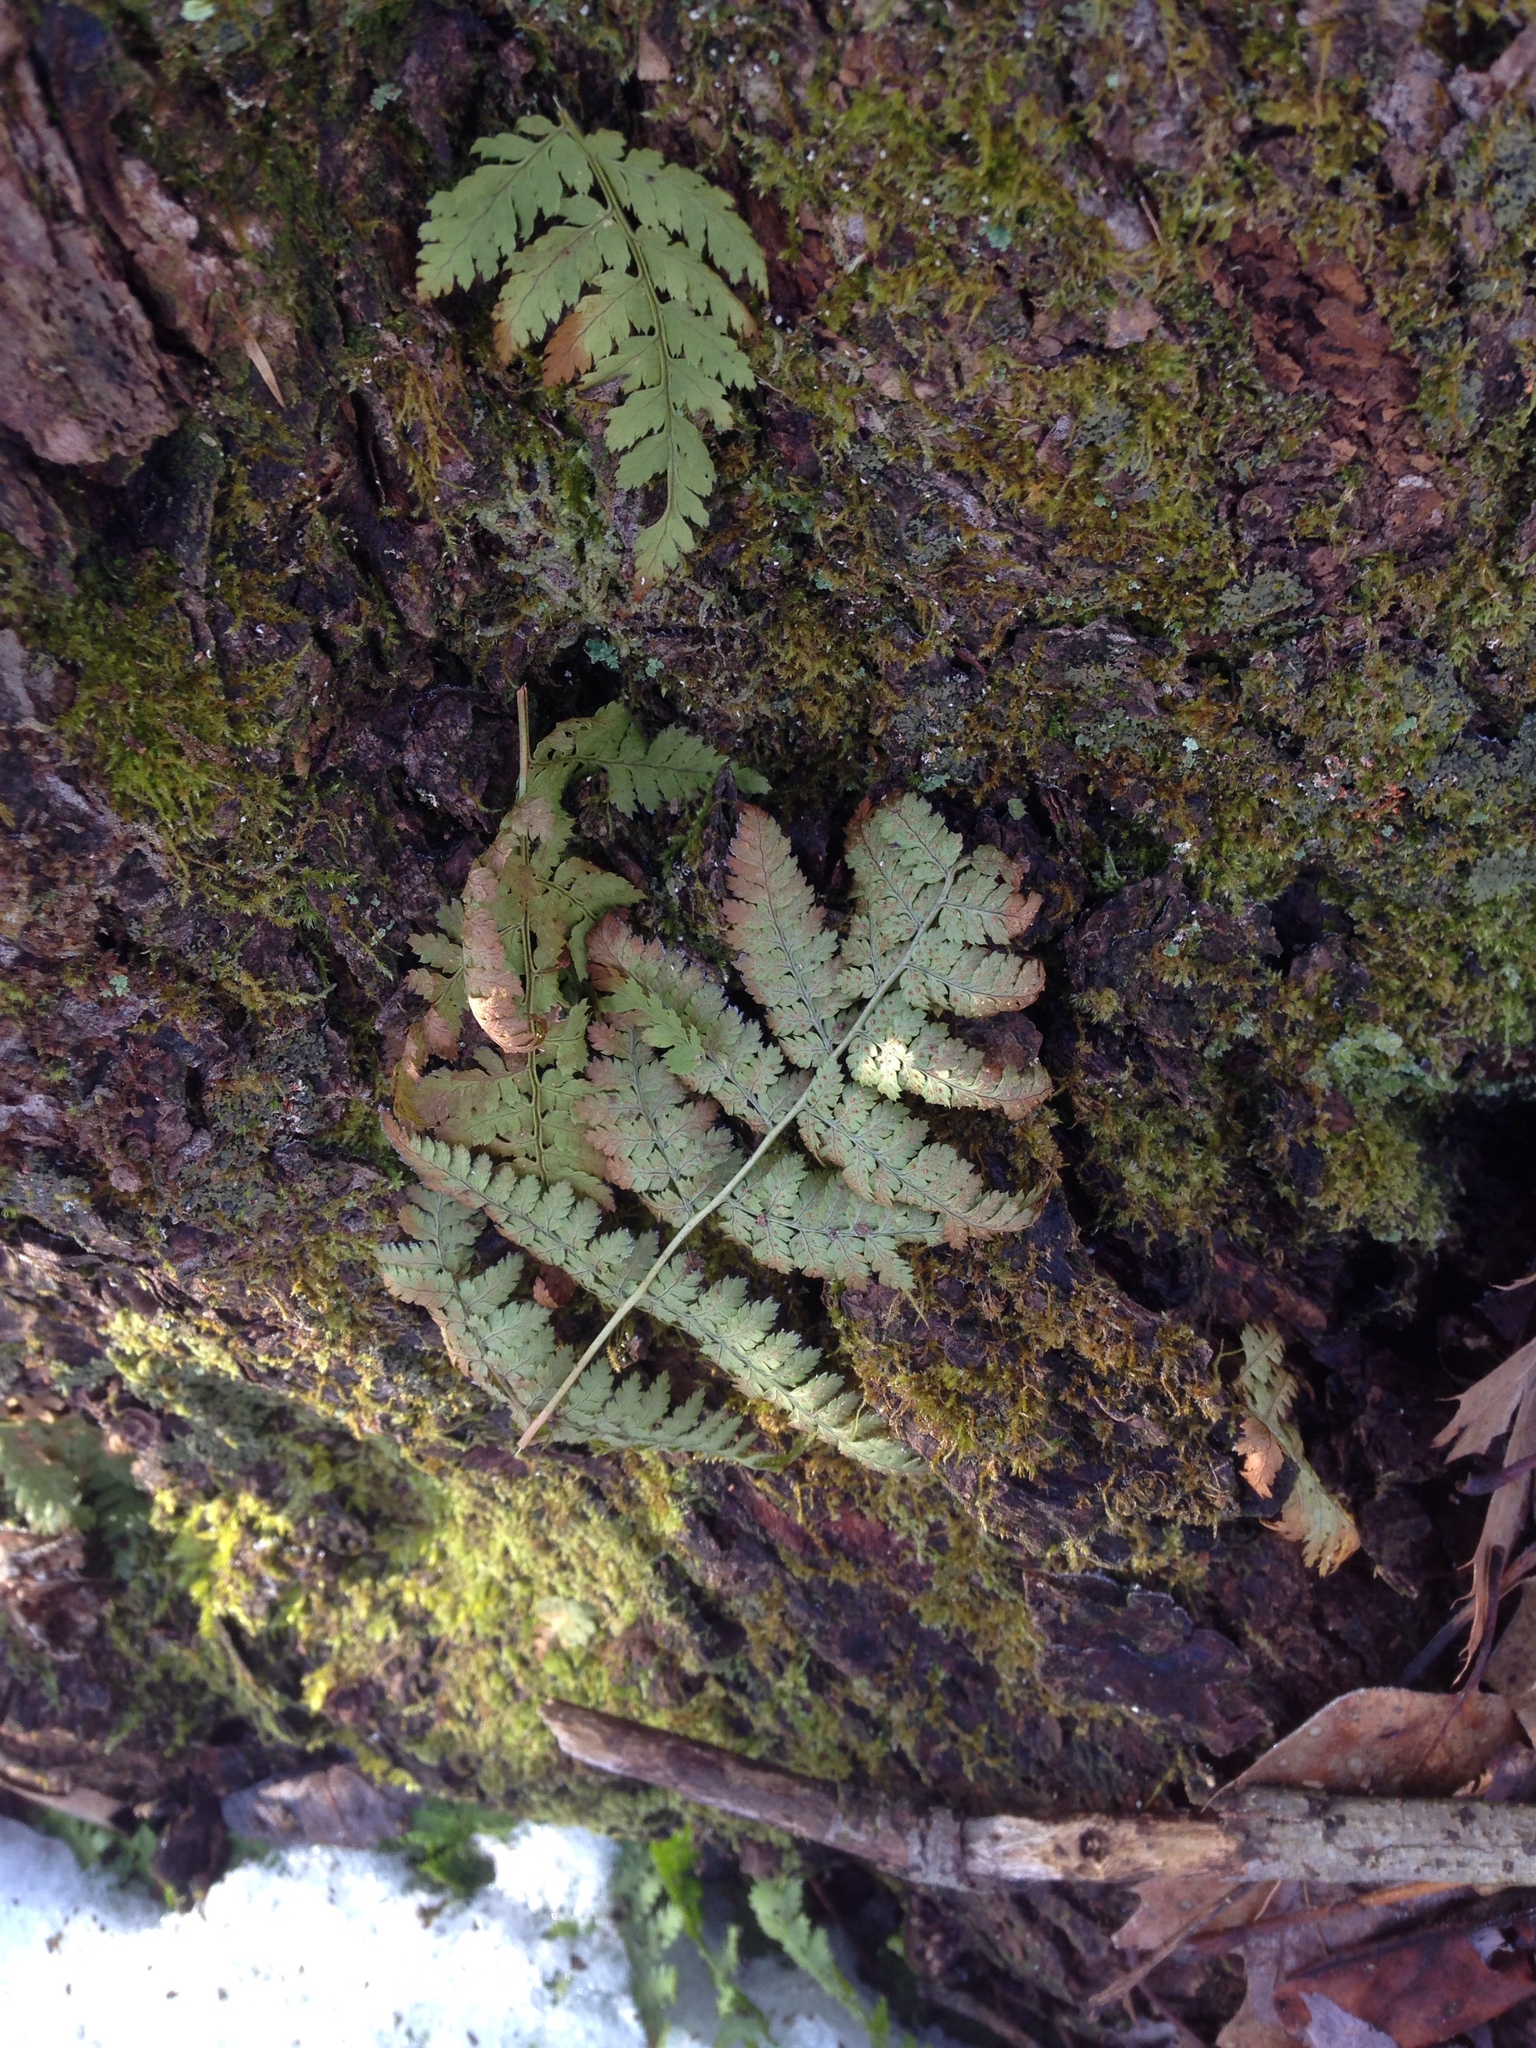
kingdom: Plantae
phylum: Tracheophyta
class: Polypodiopsida
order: Polypodiales
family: Dryopteridaceae
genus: Dryopteris
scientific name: Dryopteris intermedia
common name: Evergreen wood fern
